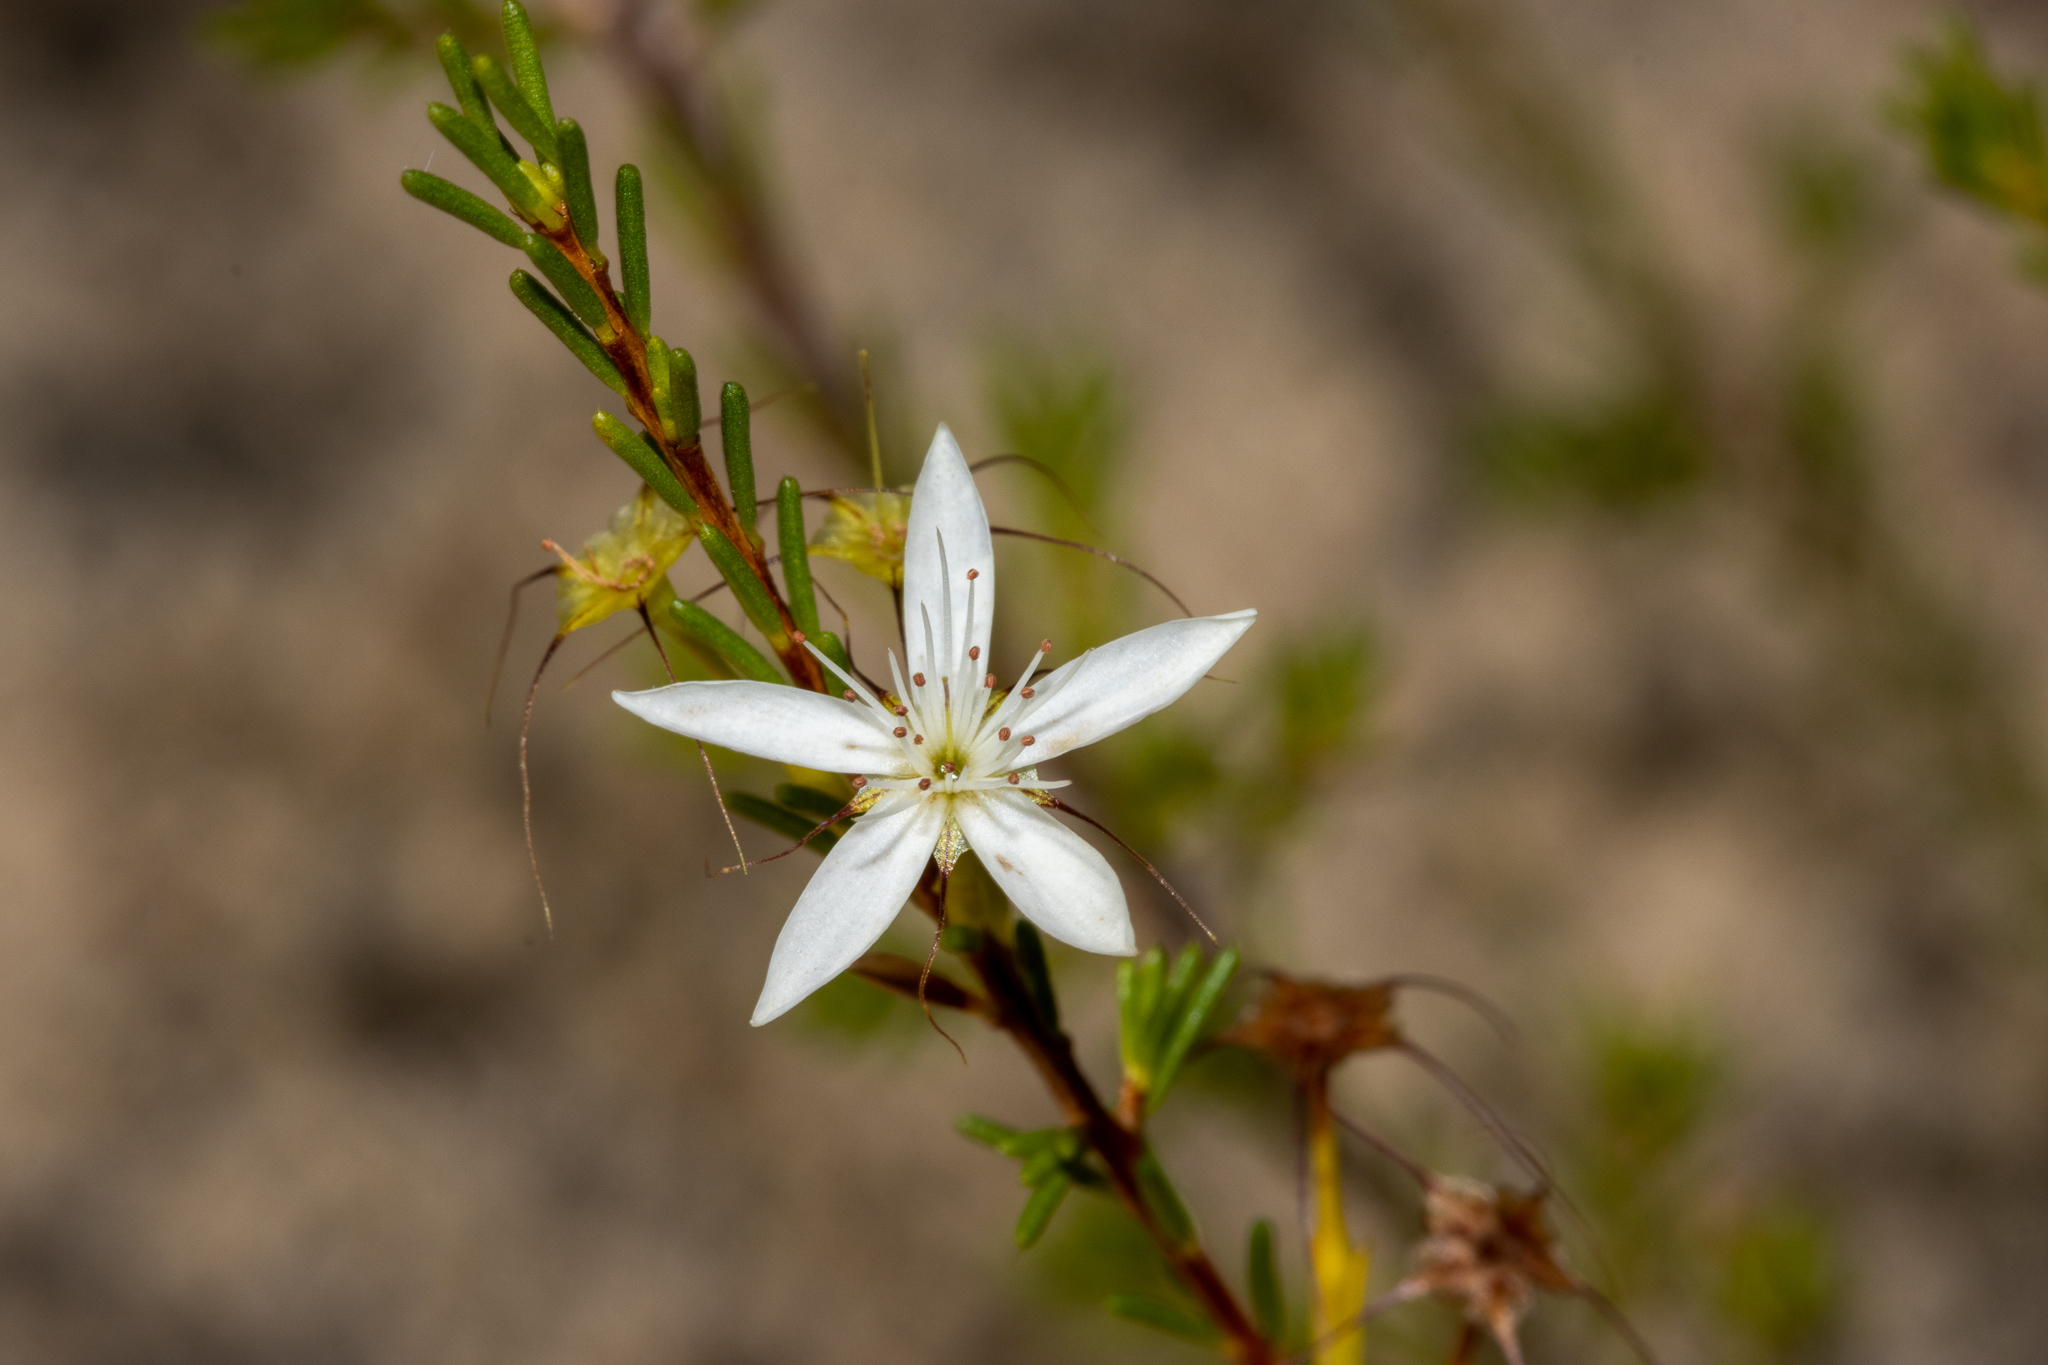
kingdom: Plantae
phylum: Tracheophyta
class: Magnoliopsida
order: Myrtales
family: Myrtaceae
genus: Calytrix
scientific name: Calytrix tetragona
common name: Common fringe myrtle
